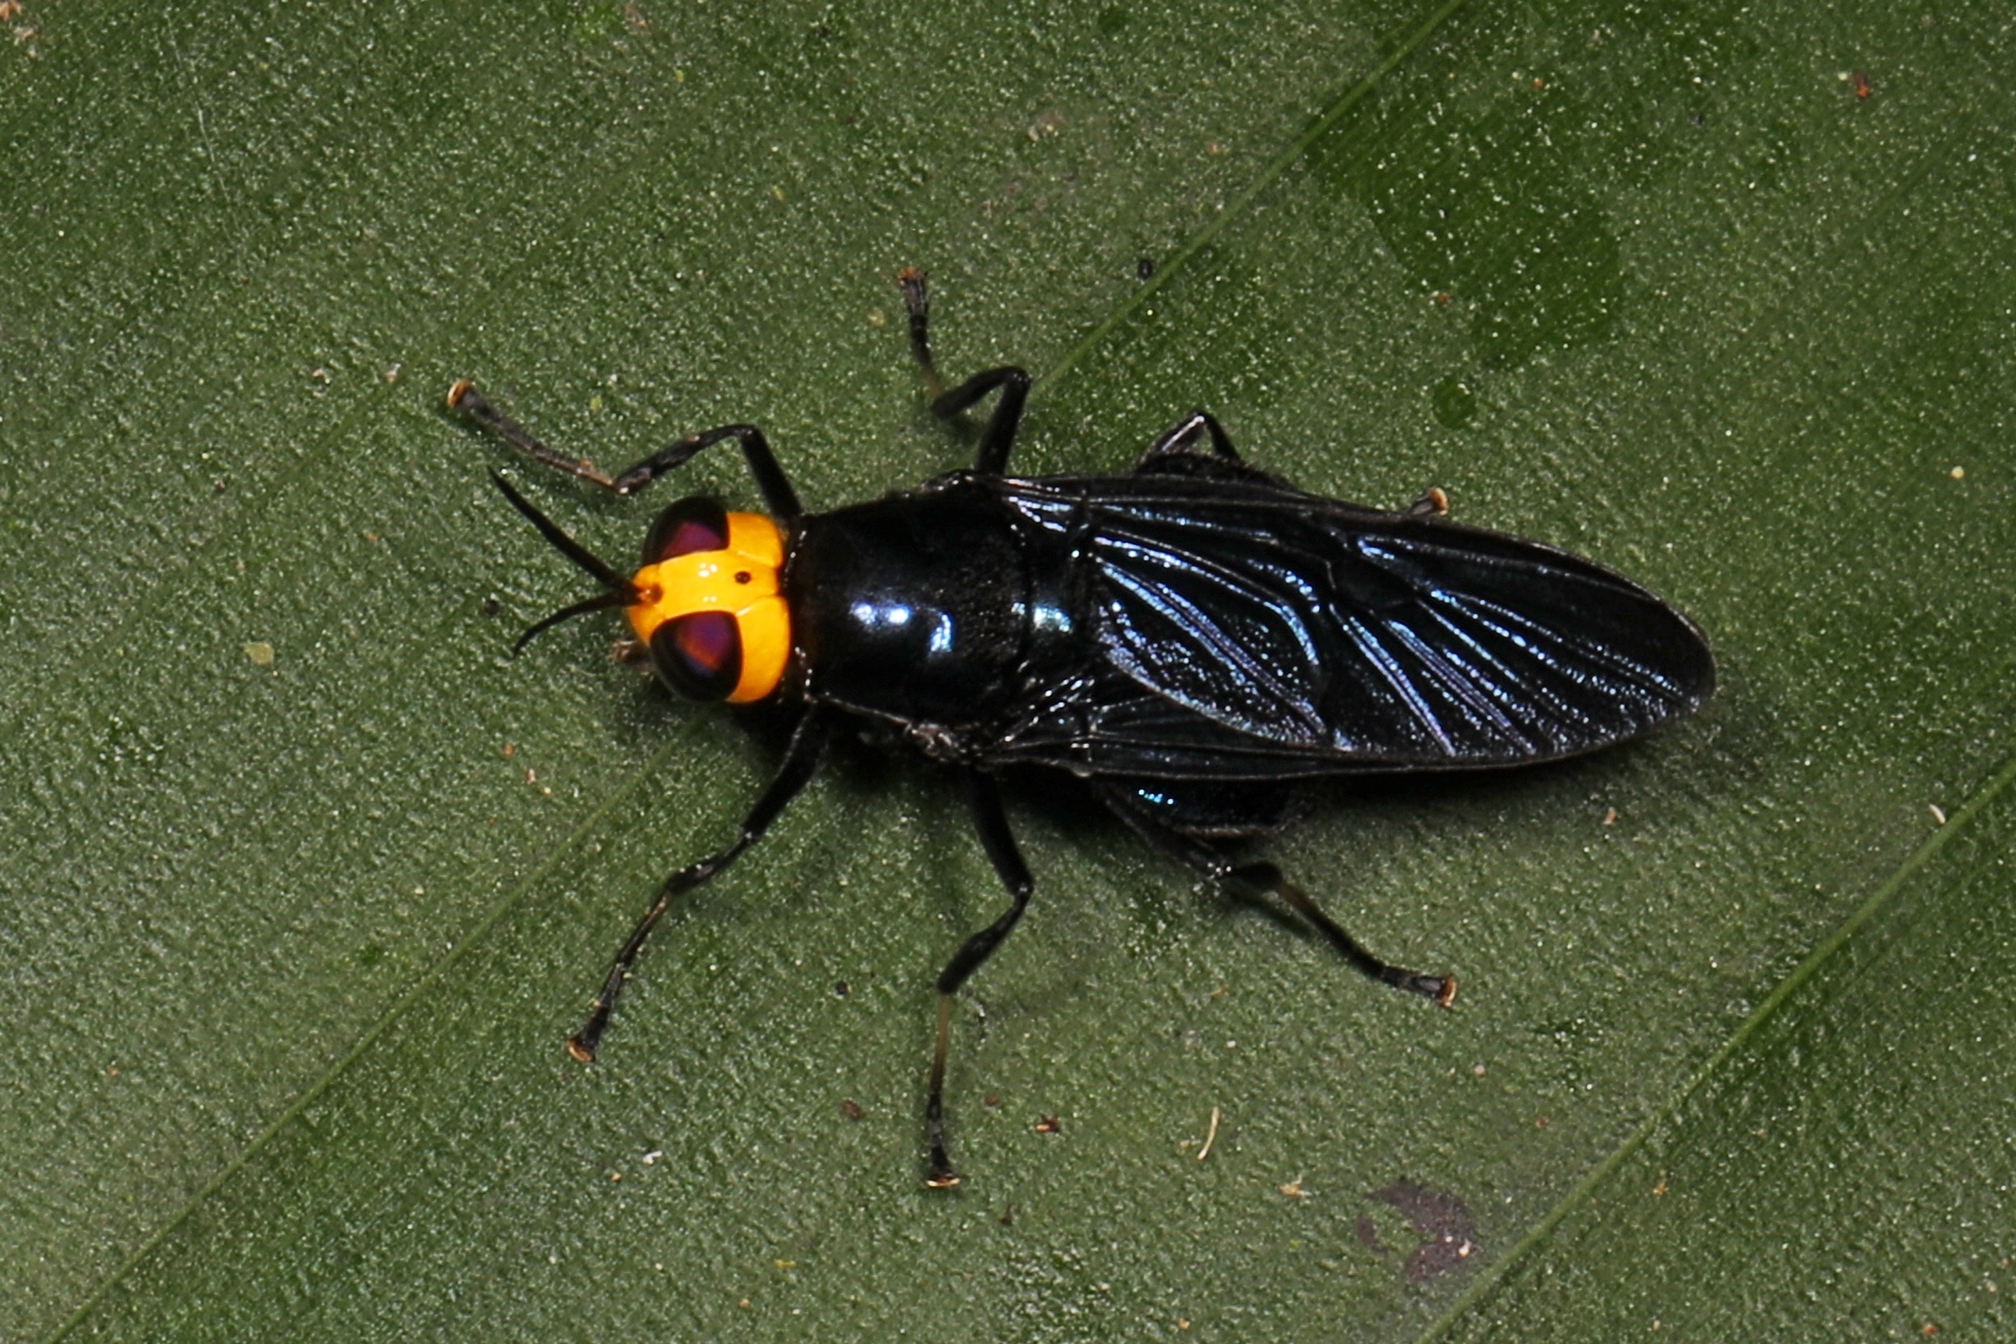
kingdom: Animalia
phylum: Arthropoda
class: Insecta
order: Diptera
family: Stratiomyidae
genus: Cyphomyia
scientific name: Cyphomyia cyanea
